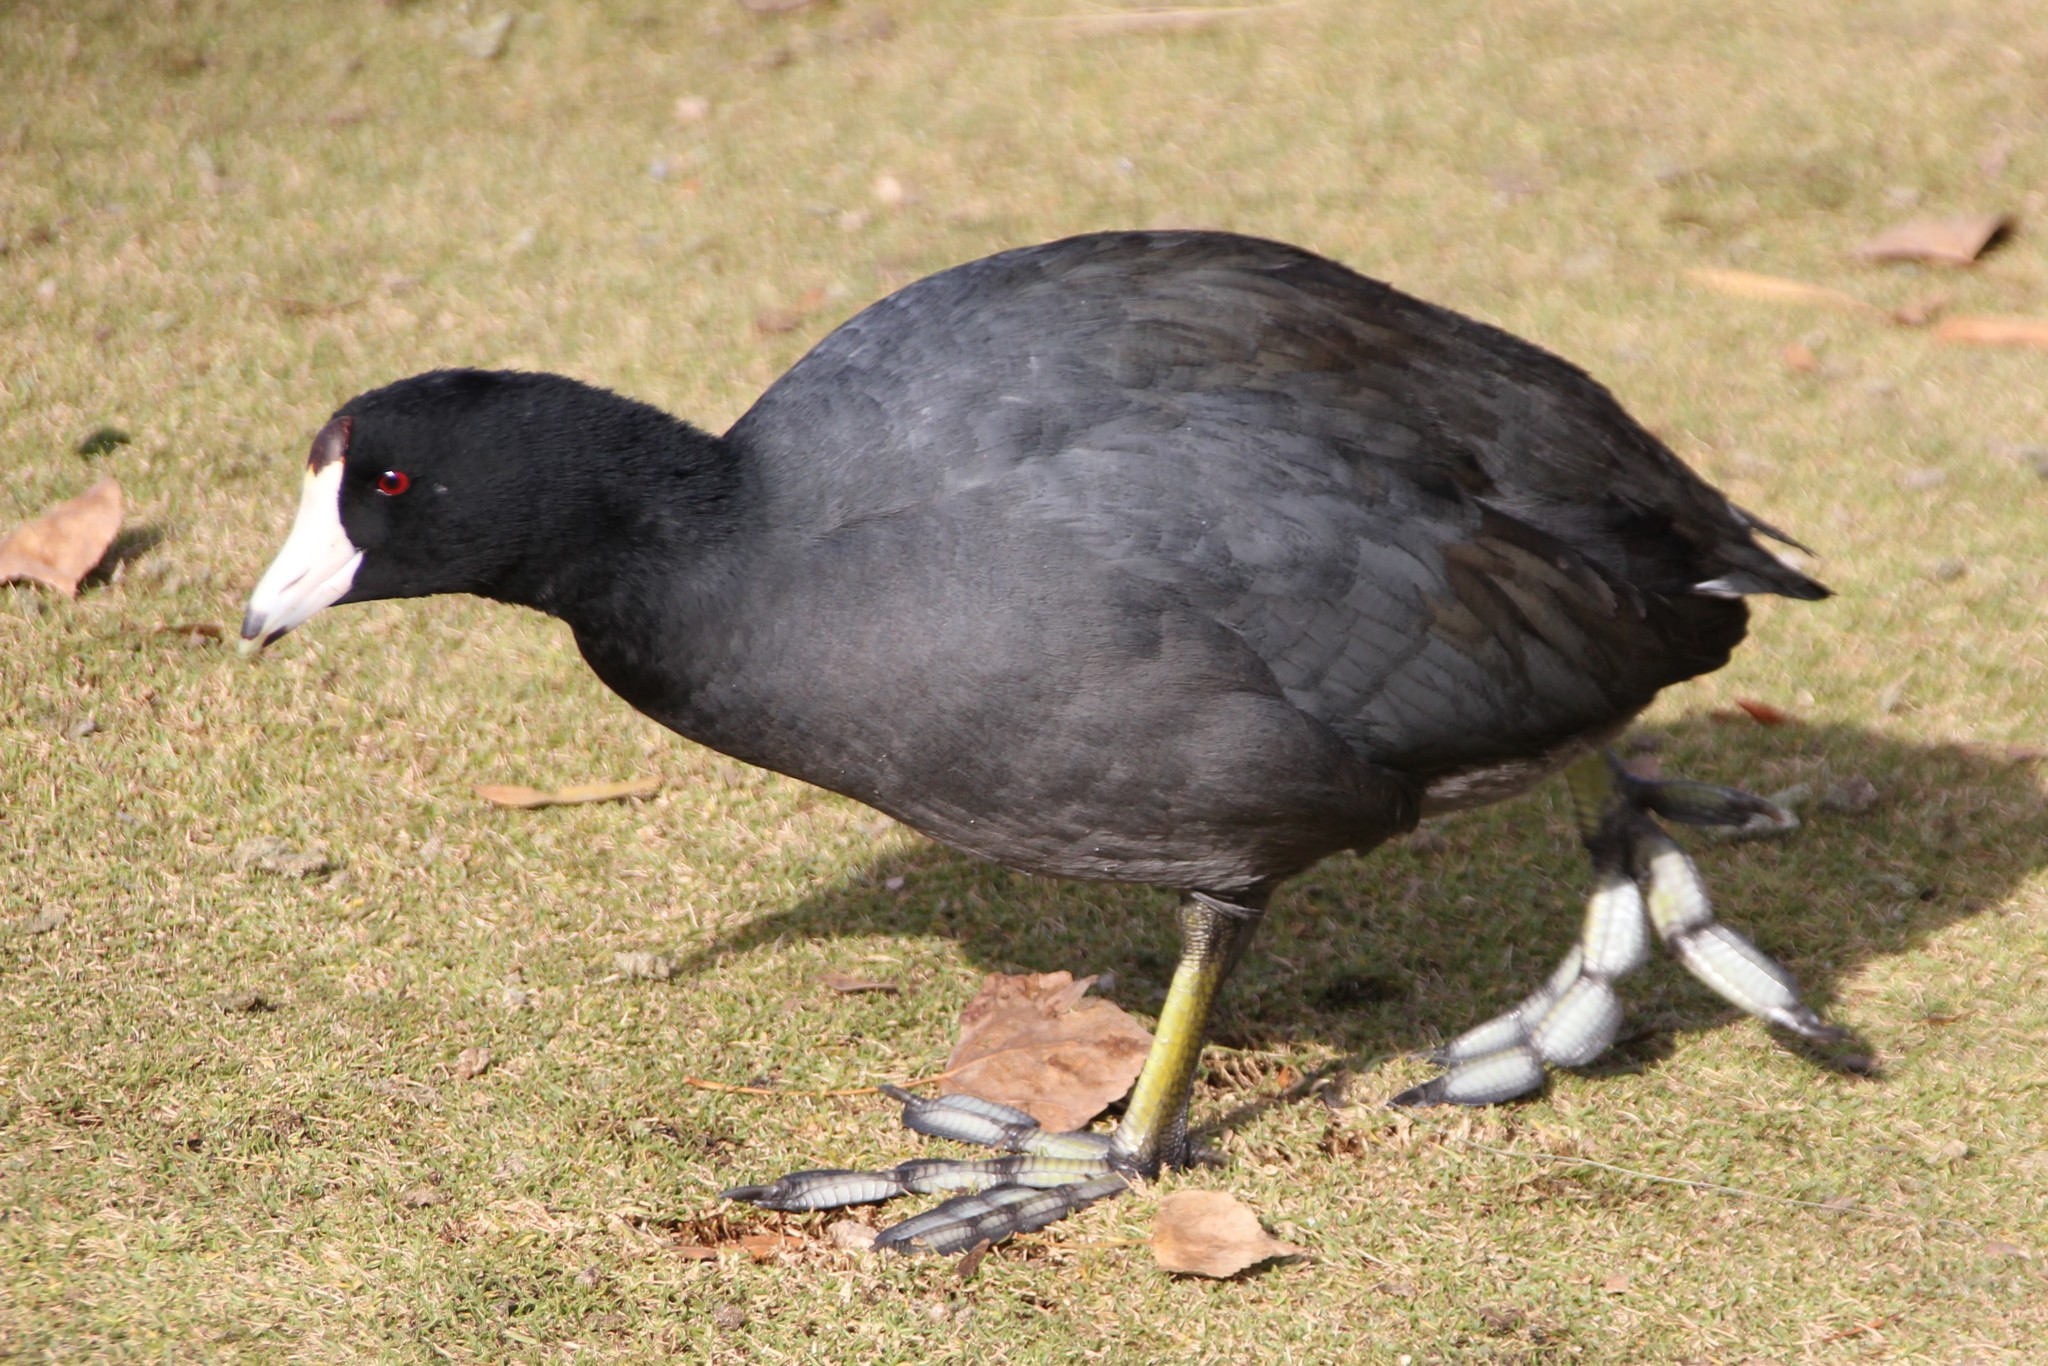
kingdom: Animalia
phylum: Chordata
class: Aves
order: Gruiformes
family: Rallidae
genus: Fulica
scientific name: Fulica americana
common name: American coot
